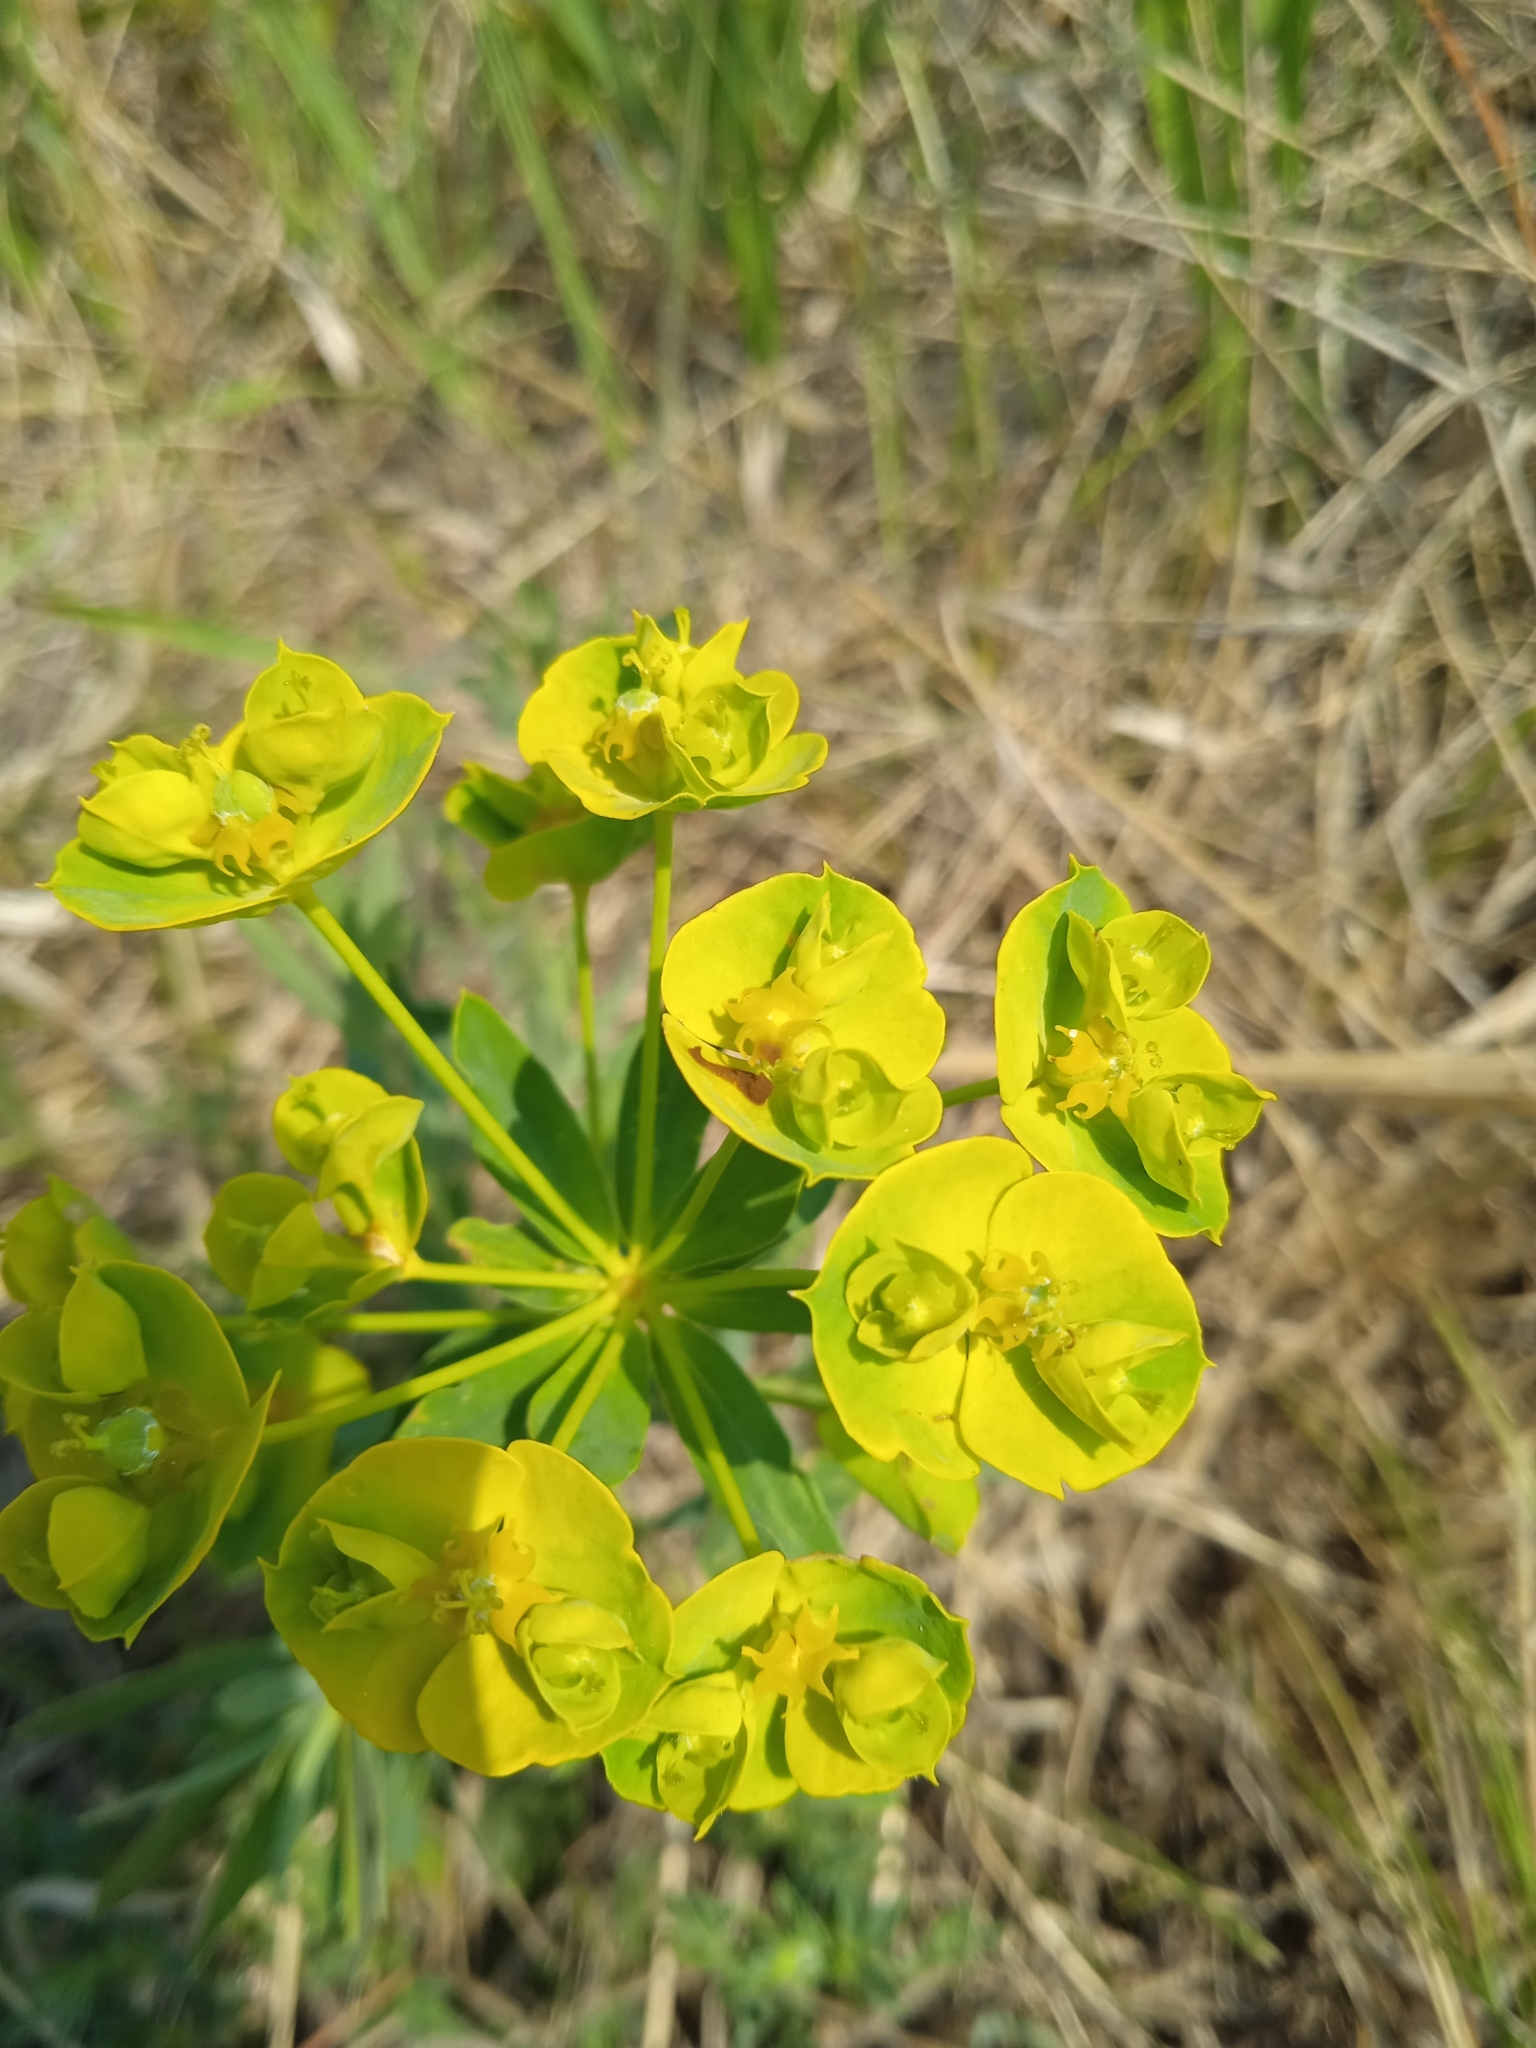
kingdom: Plantae
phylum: Tracheophyta
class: Magnoliopsida
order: Malpighiales
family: Euphorbiaceae
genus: Euphorbia
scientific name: Euphorbia virgata
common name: Leafy spurge
